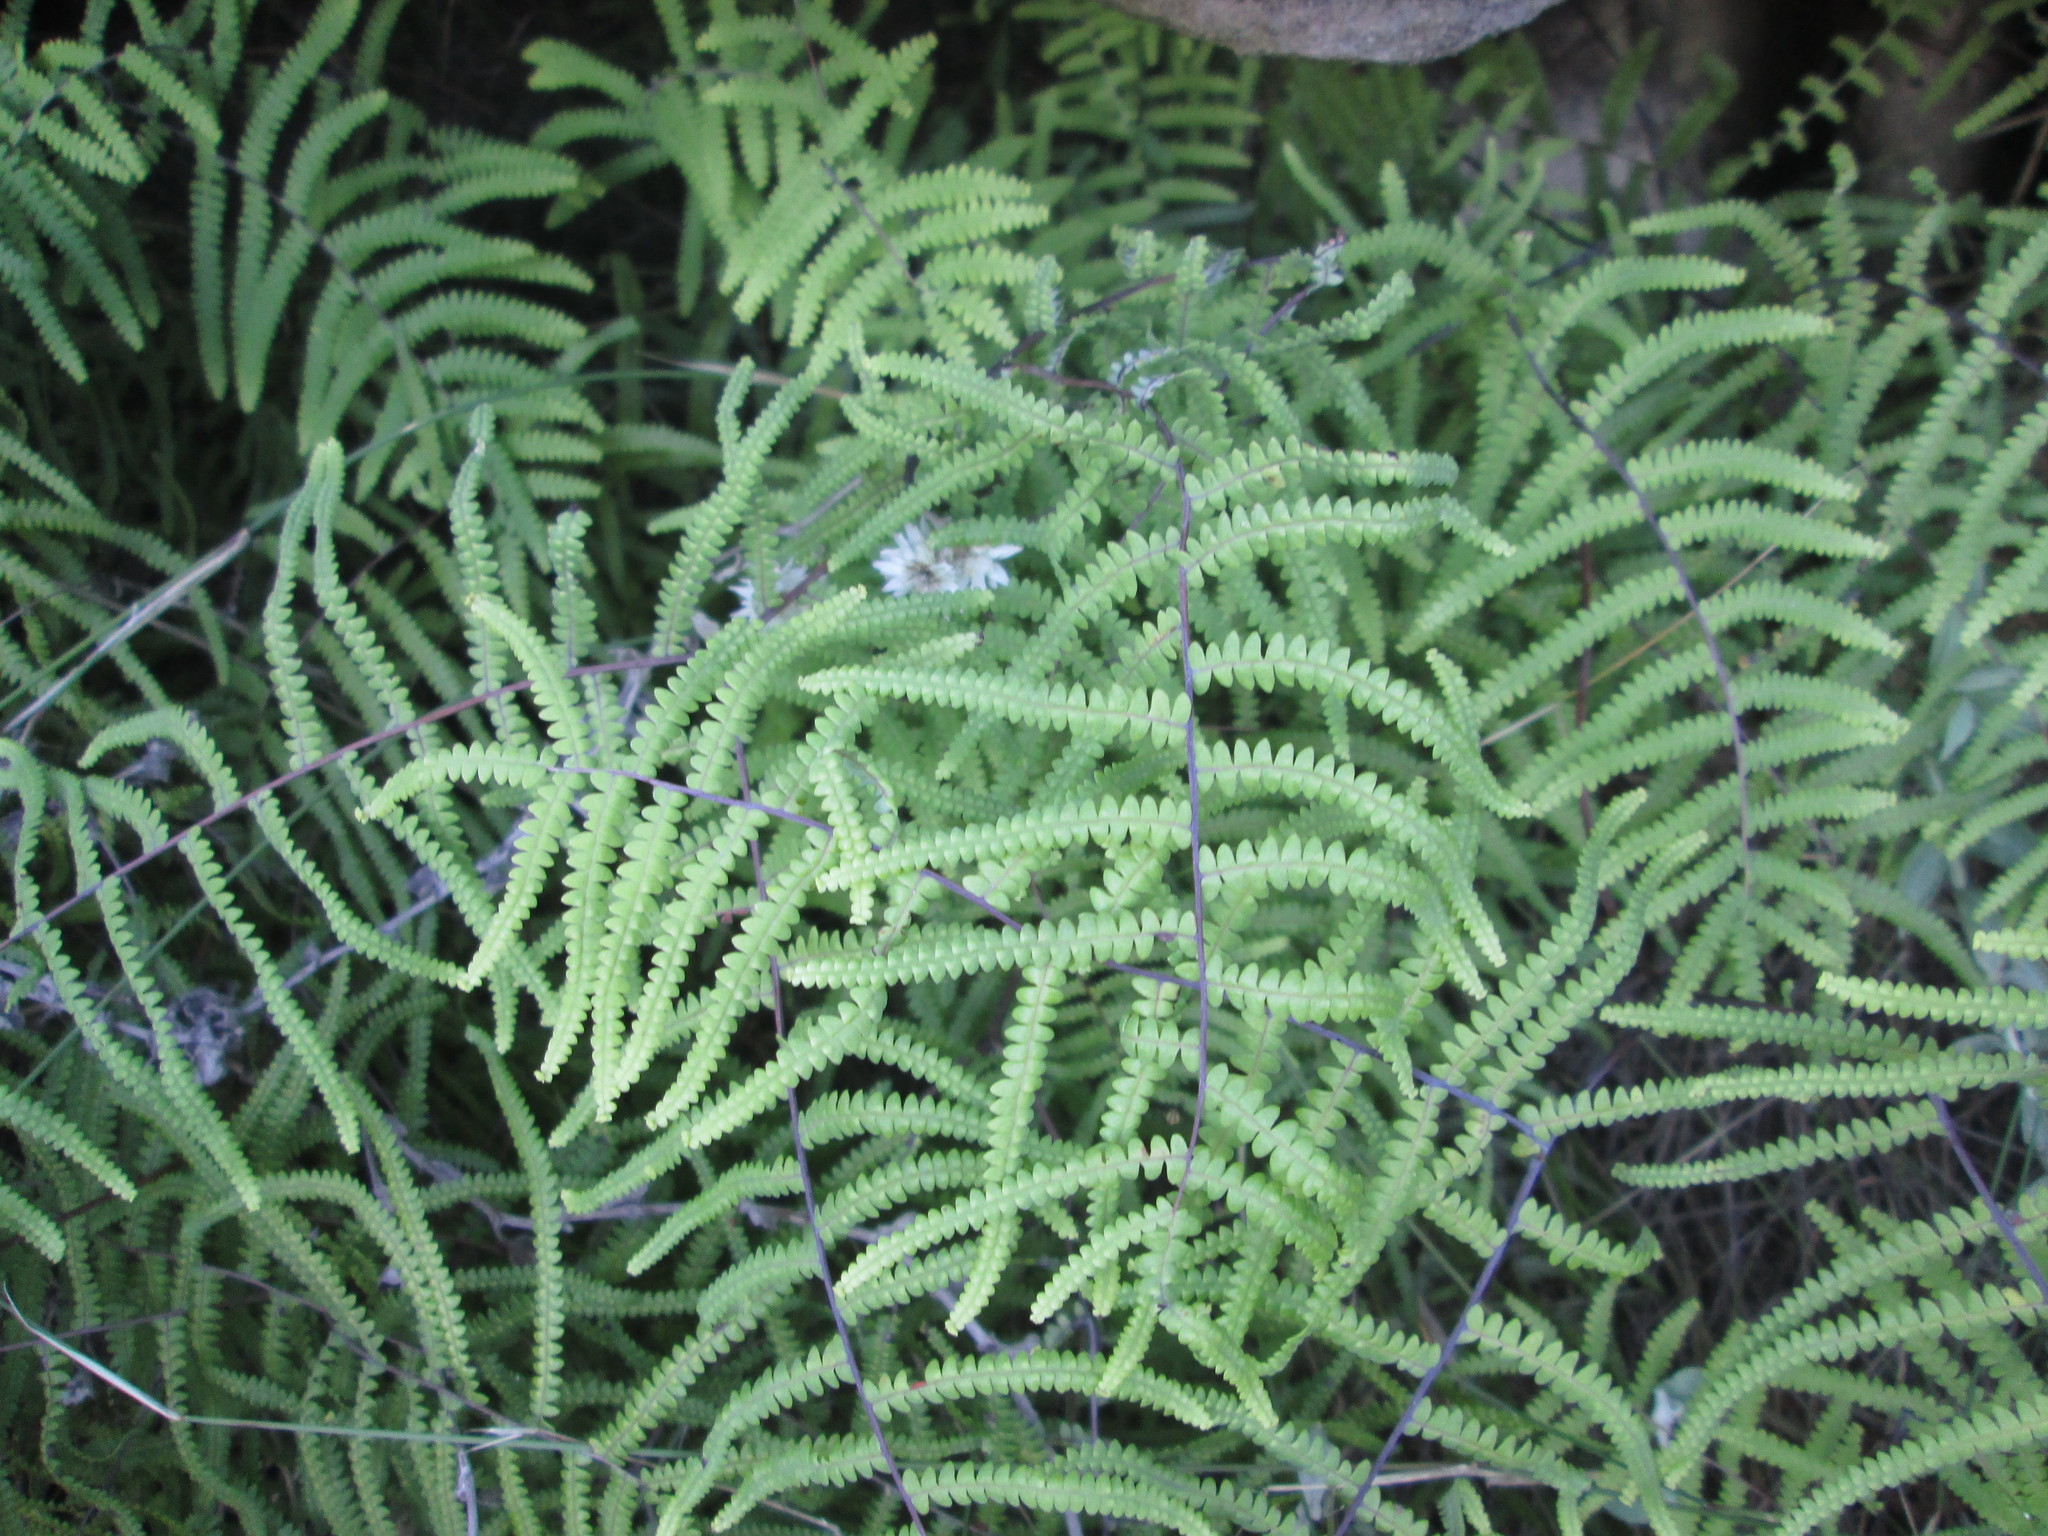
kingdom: Plantae
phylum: Tracheophyta
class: Polypodiopsida
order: Gleicheniales
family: Gleicheniaceae
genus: Gleichenia
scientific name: Gleichenia polypodioides
